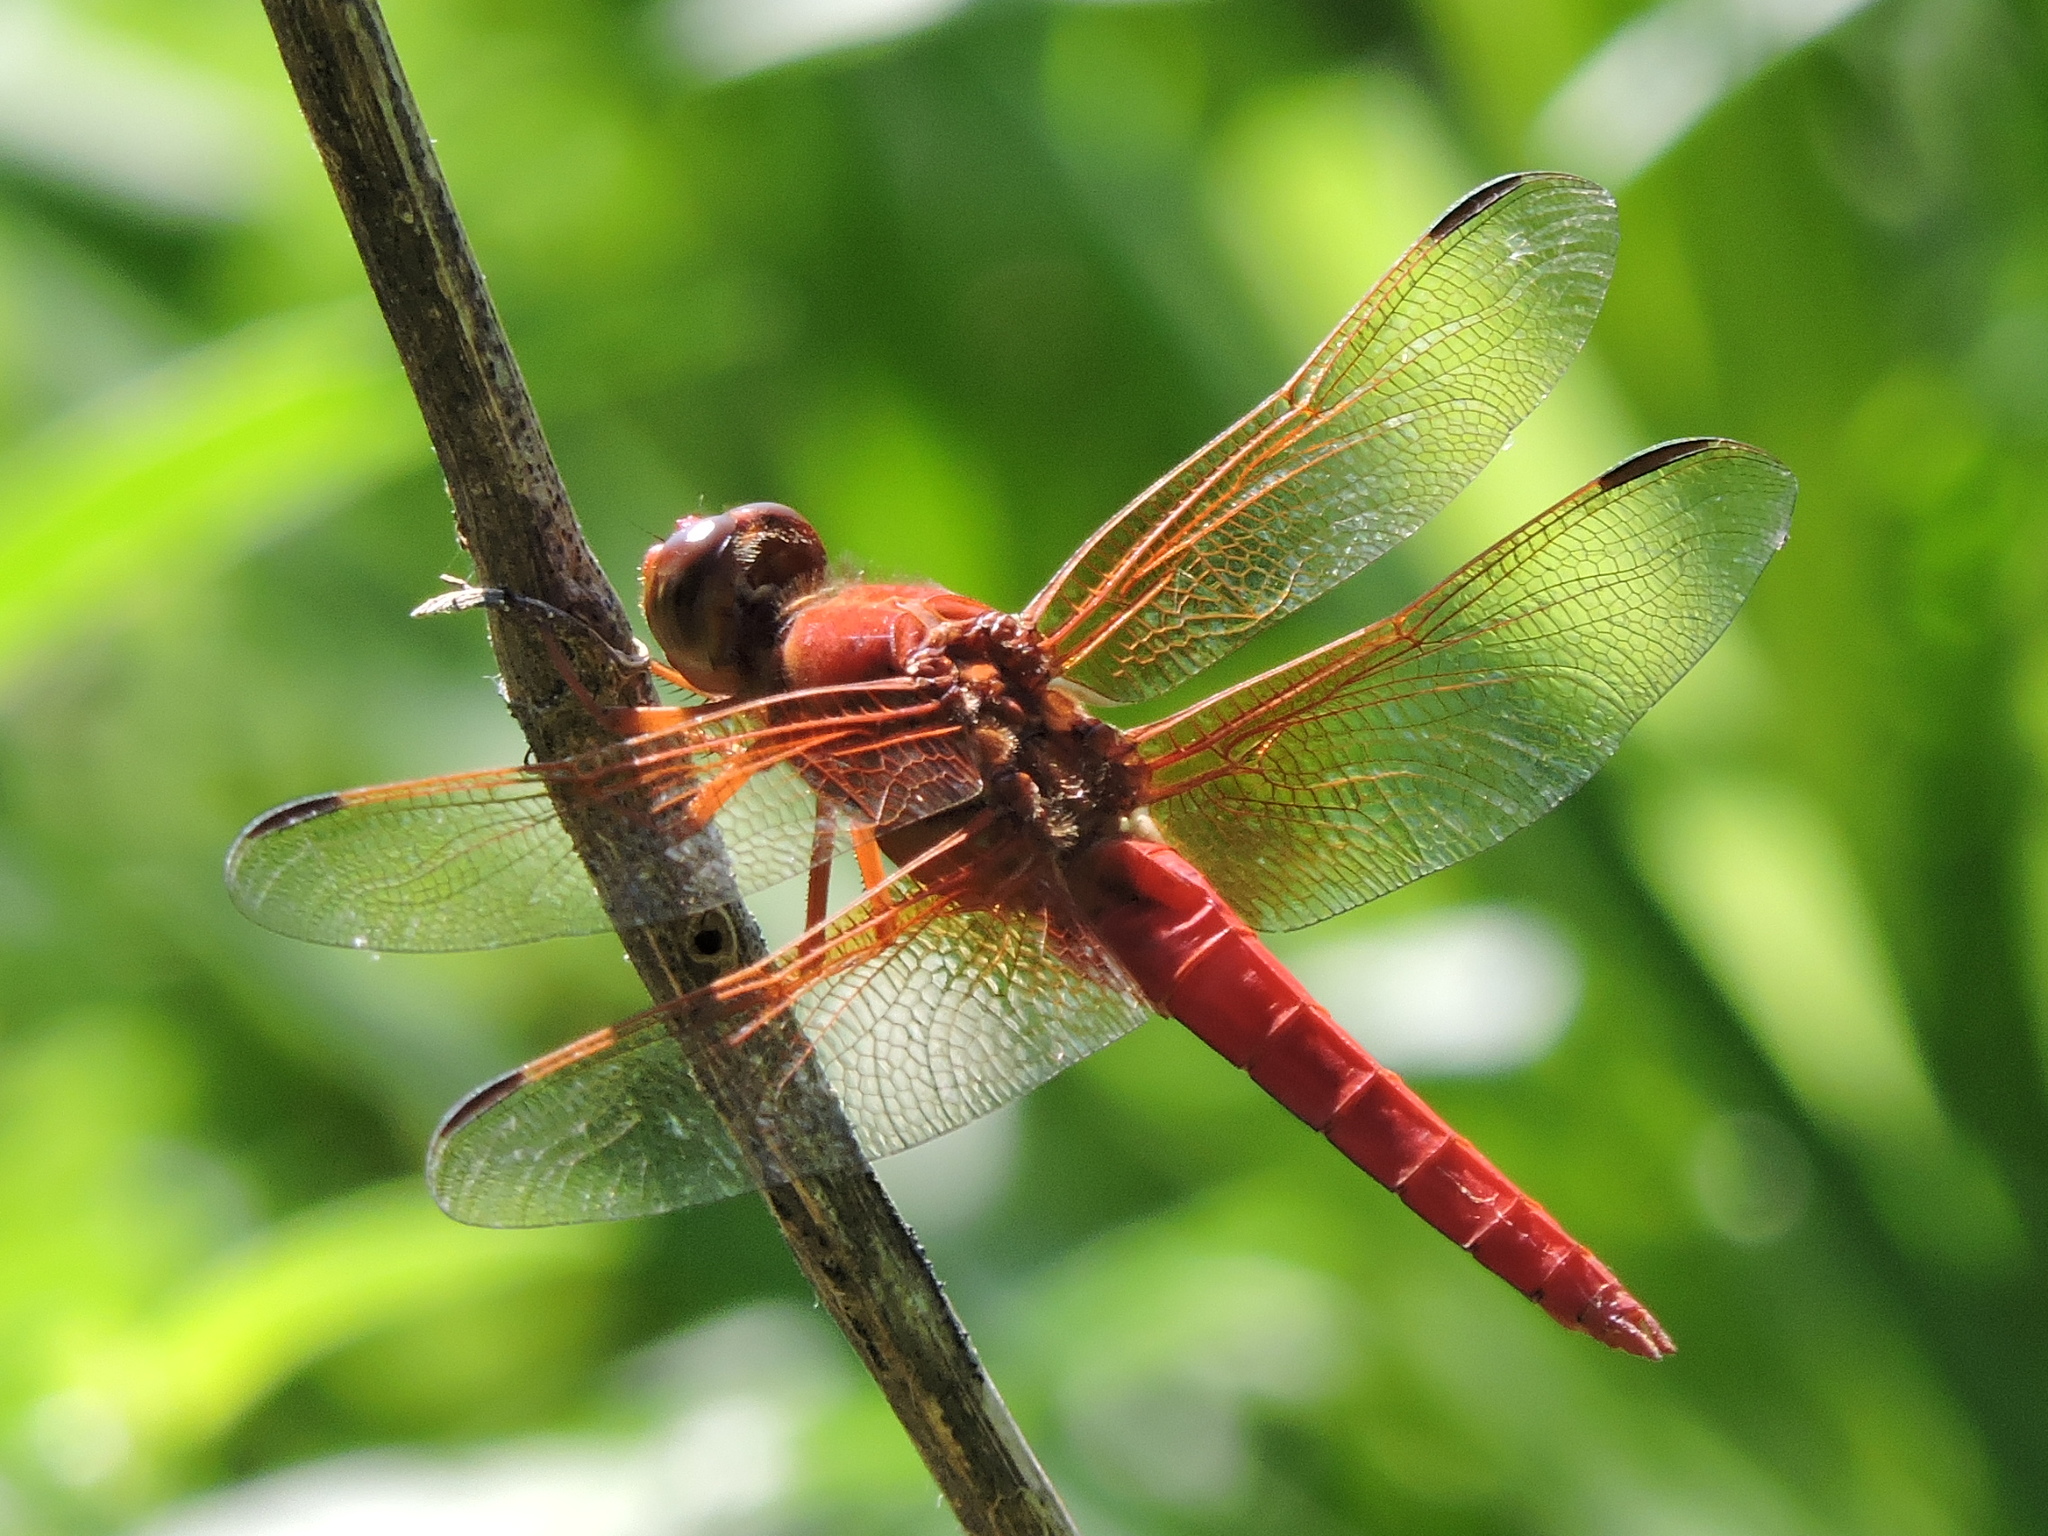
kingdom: Animalia
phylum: Arthropoda
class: Insecta
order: Odonata
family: Libellulidae
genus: Libellula
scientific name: Libellula croceipennis
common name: Neon skimmer
